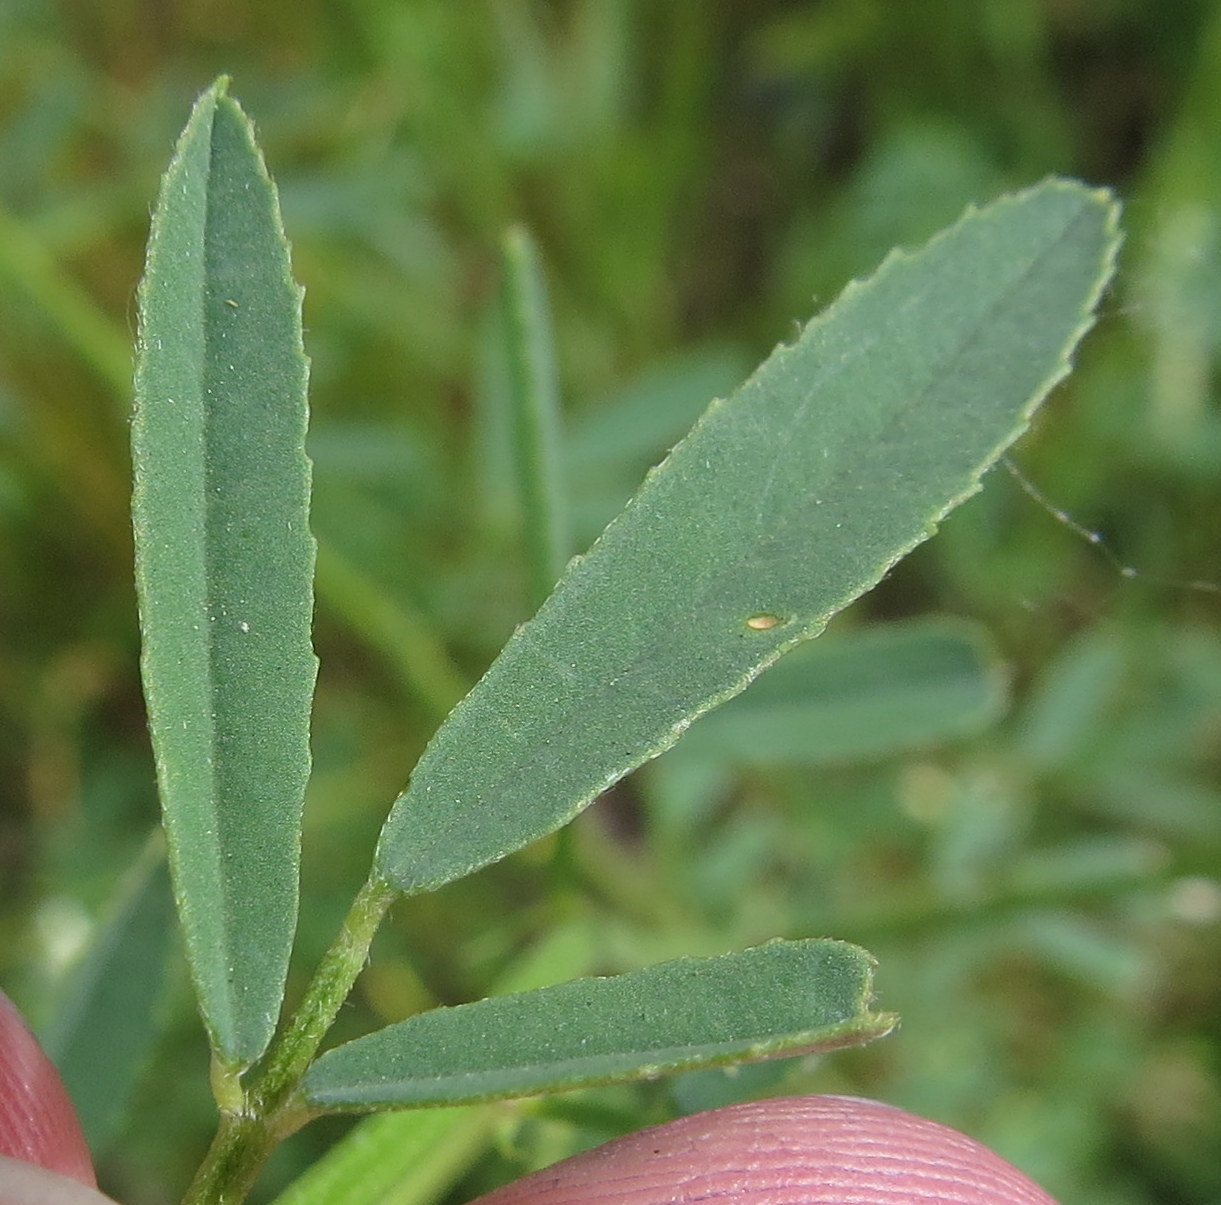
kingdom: Plantae
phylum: Tracheophyta
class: Magnoliopsida
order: Fabales
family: Fabaceae
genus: Melilotus
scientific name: Melilotus albus
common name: White melilot
